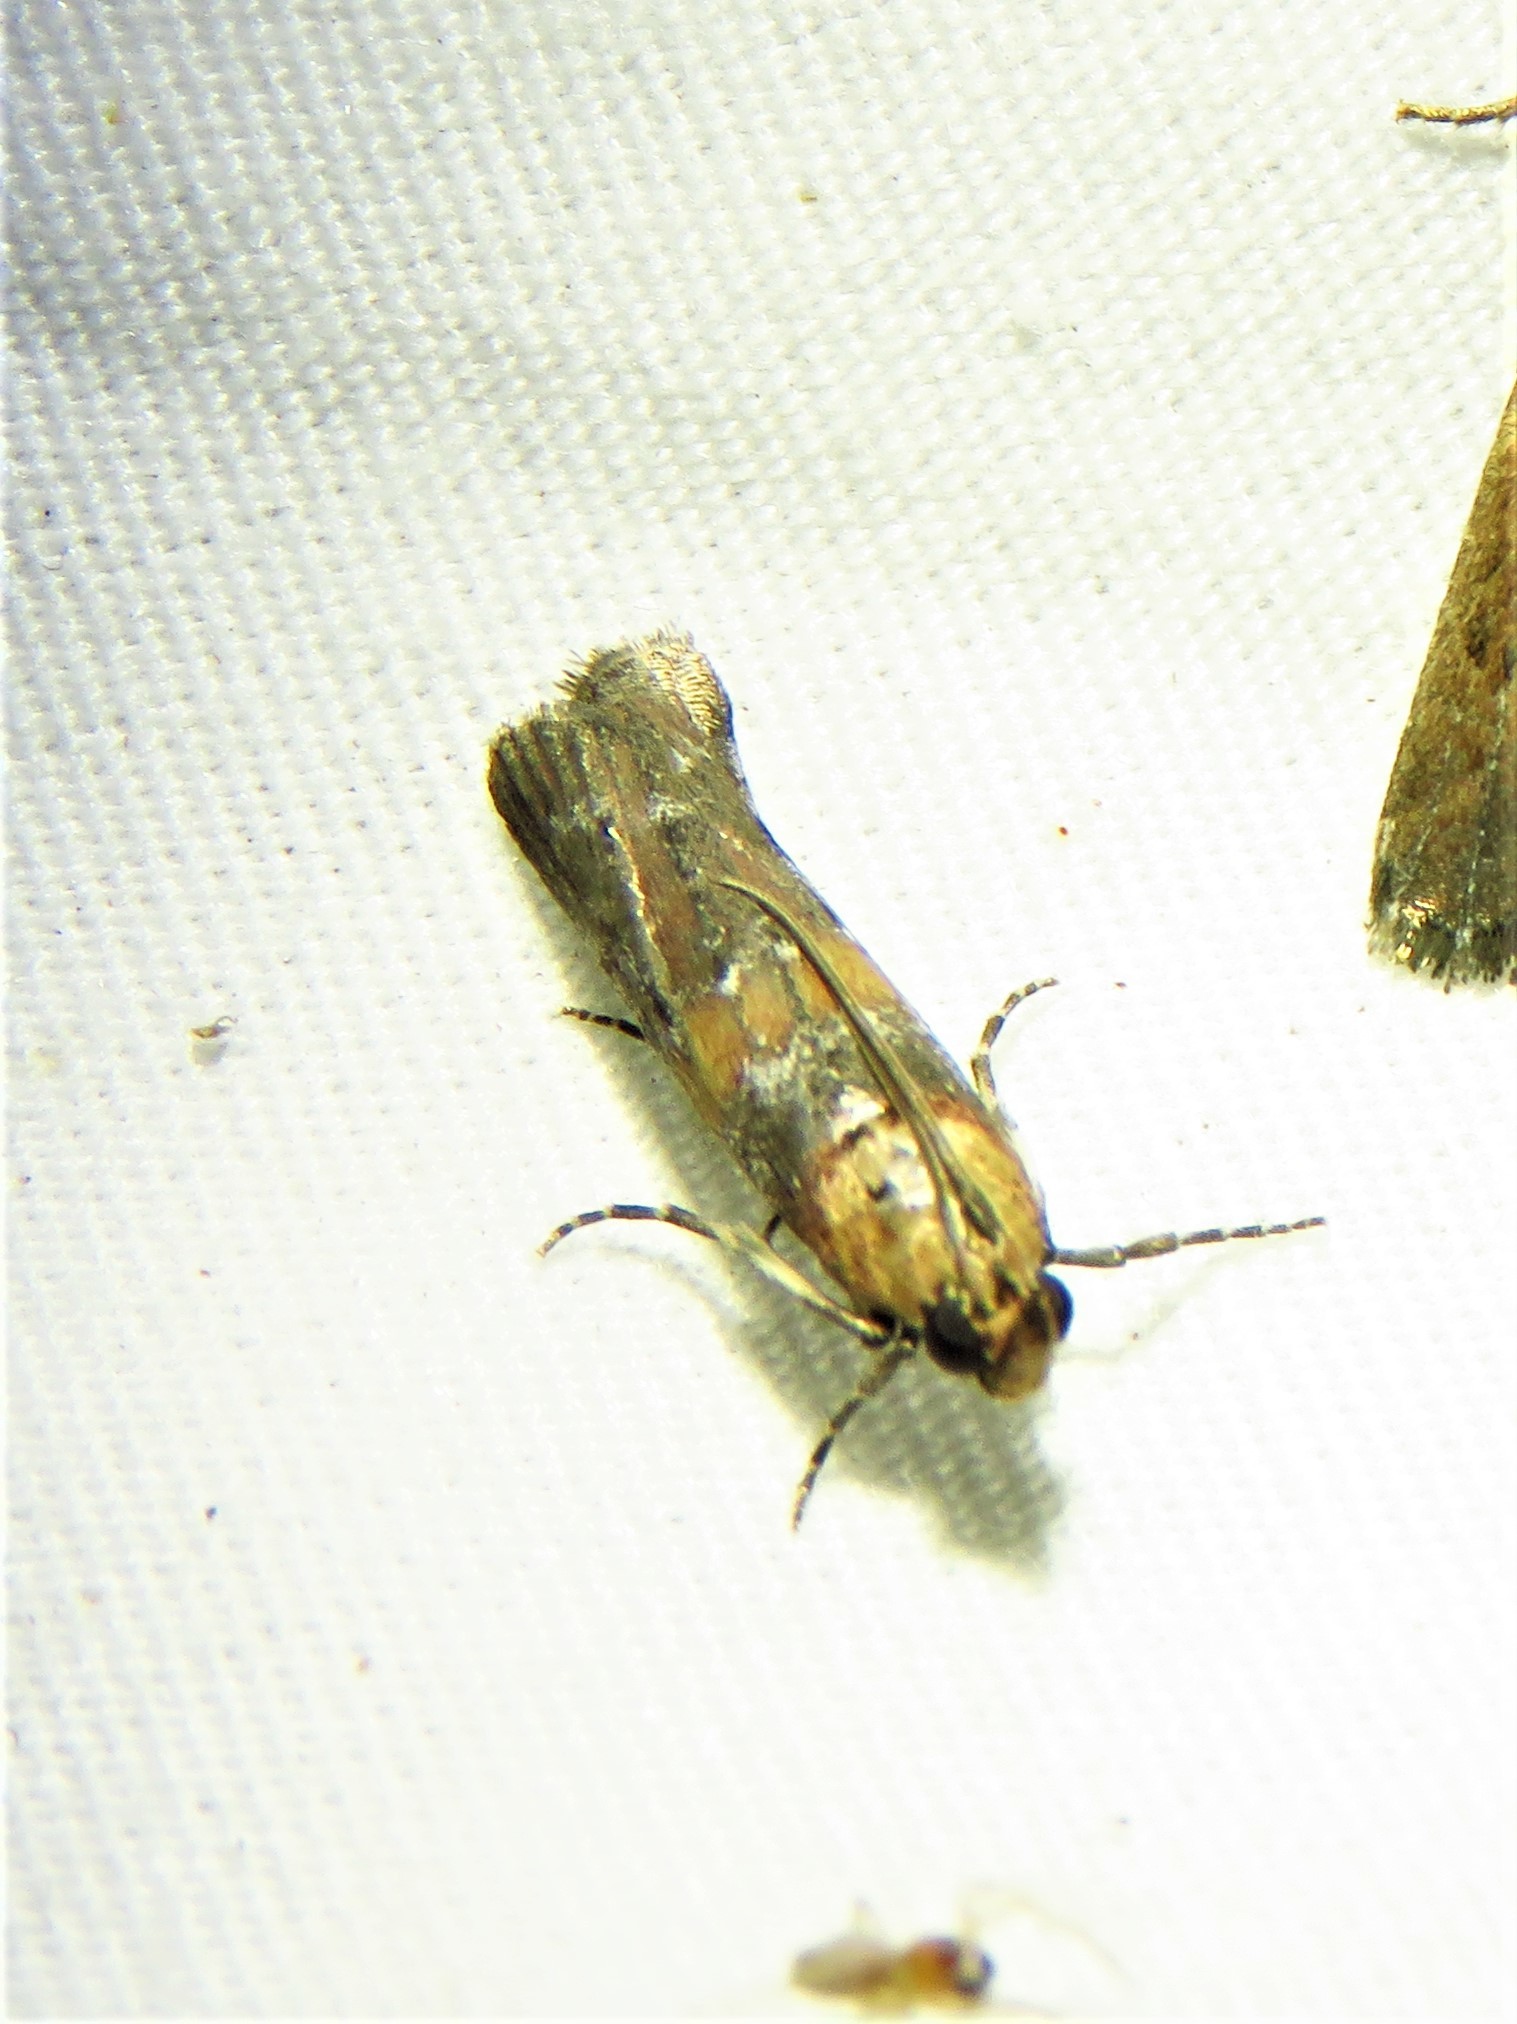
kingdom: Animalia
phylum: Arthropoda
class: Insecta
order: Lepidoptera
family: Pyralidae
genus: Adelphia
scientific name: Adelphia petrella
